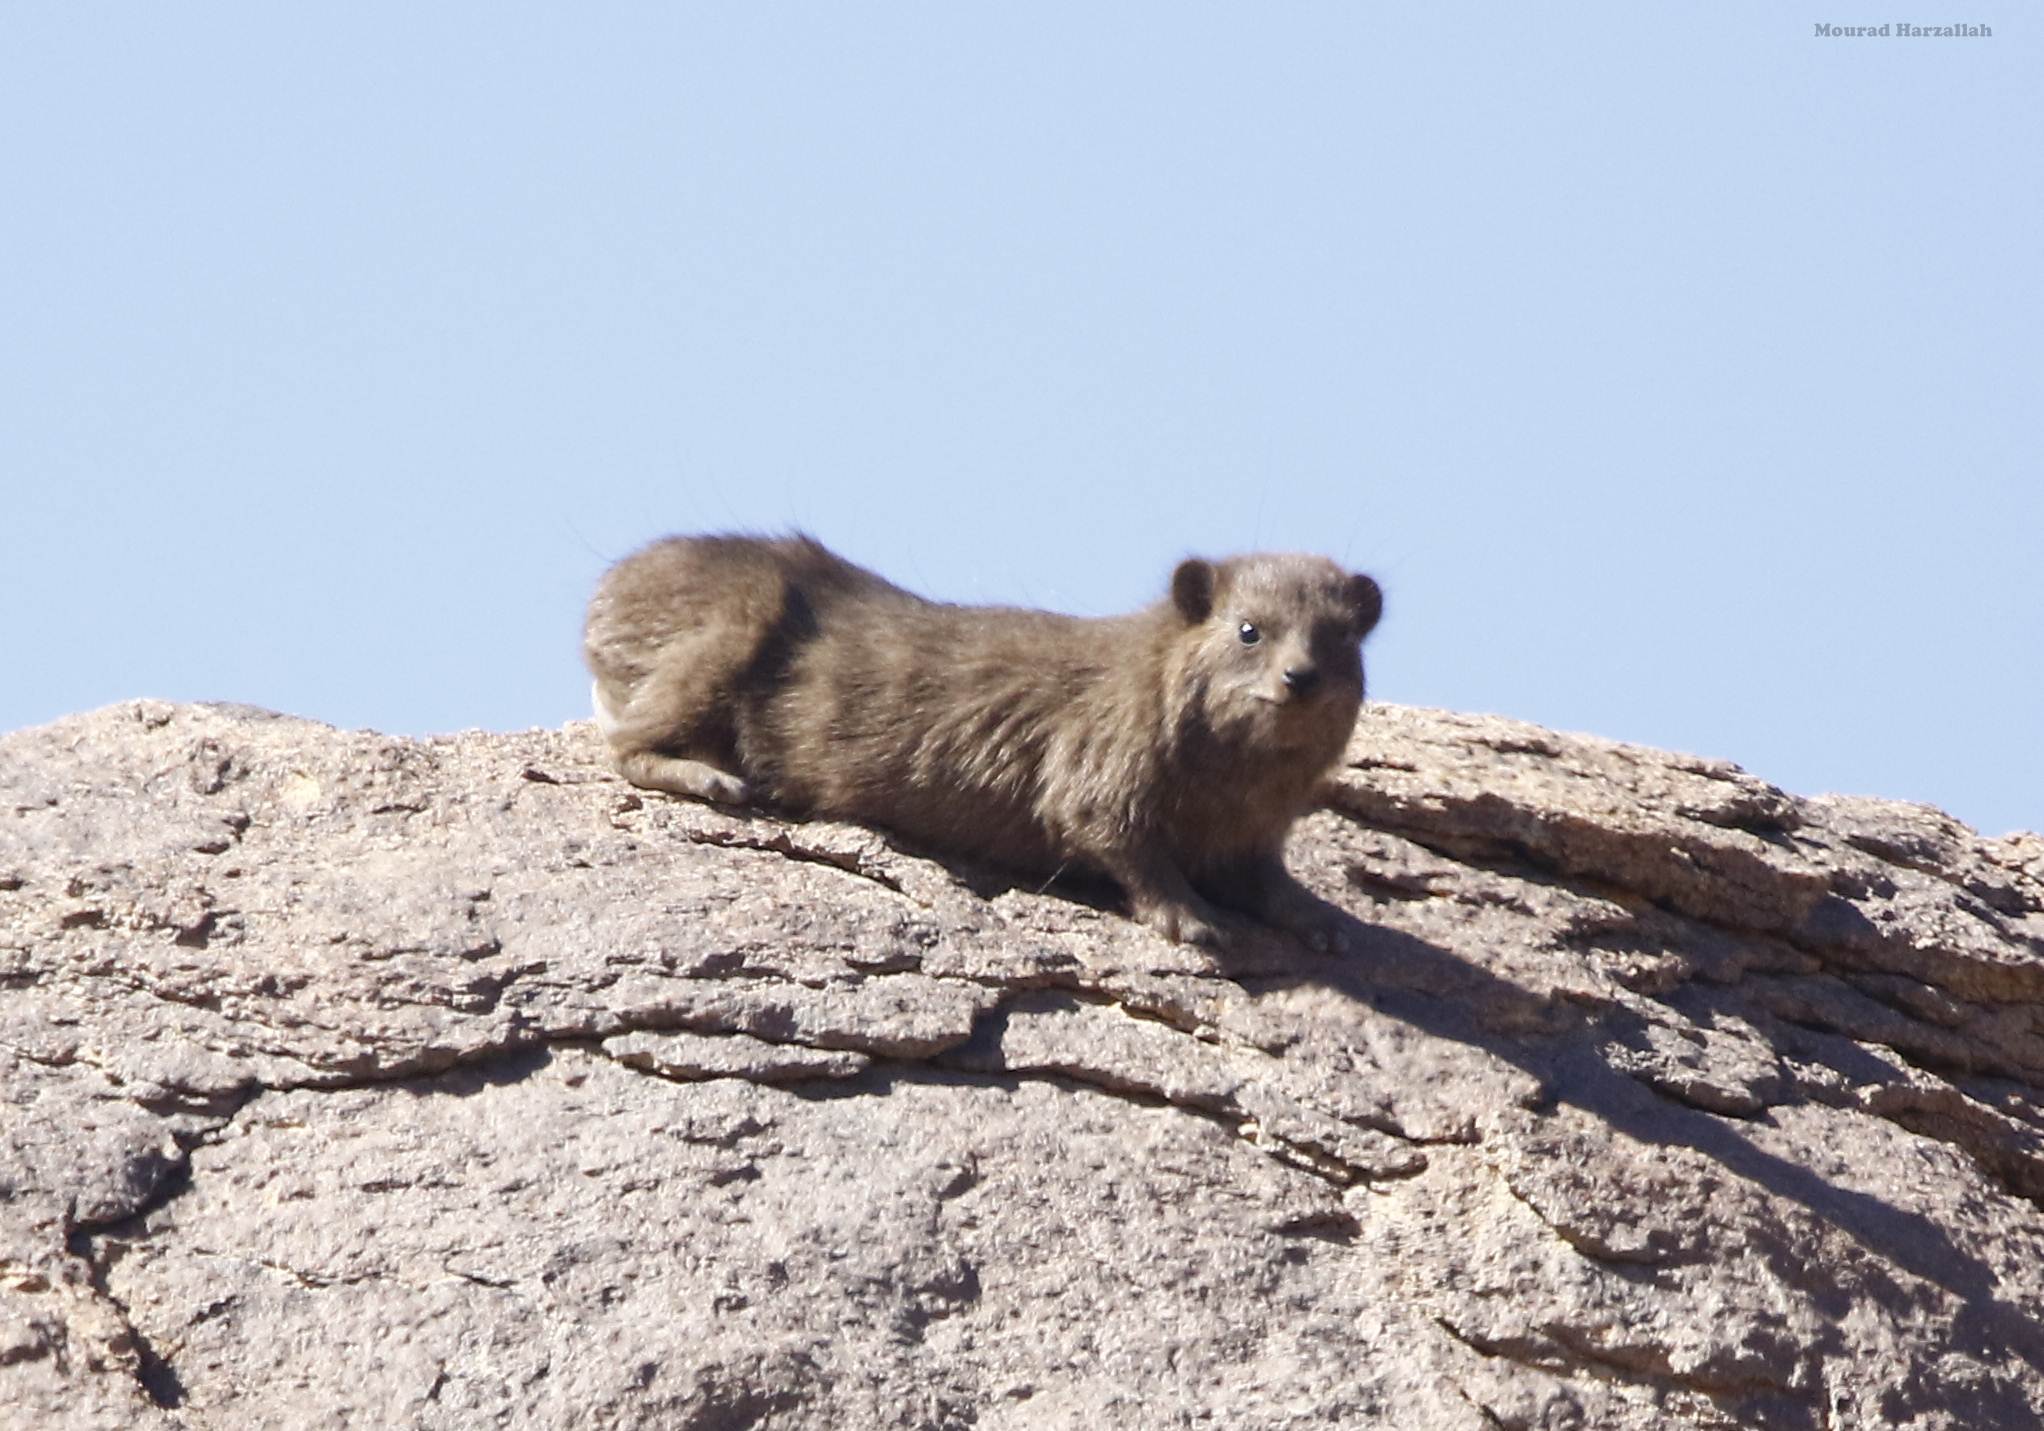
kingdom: Animalia
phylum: Chordata
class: Mammalia
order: Hyracoidea
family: Procaviidae
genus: Procavia
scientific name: Procavia capensis
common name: Rock hyrax
